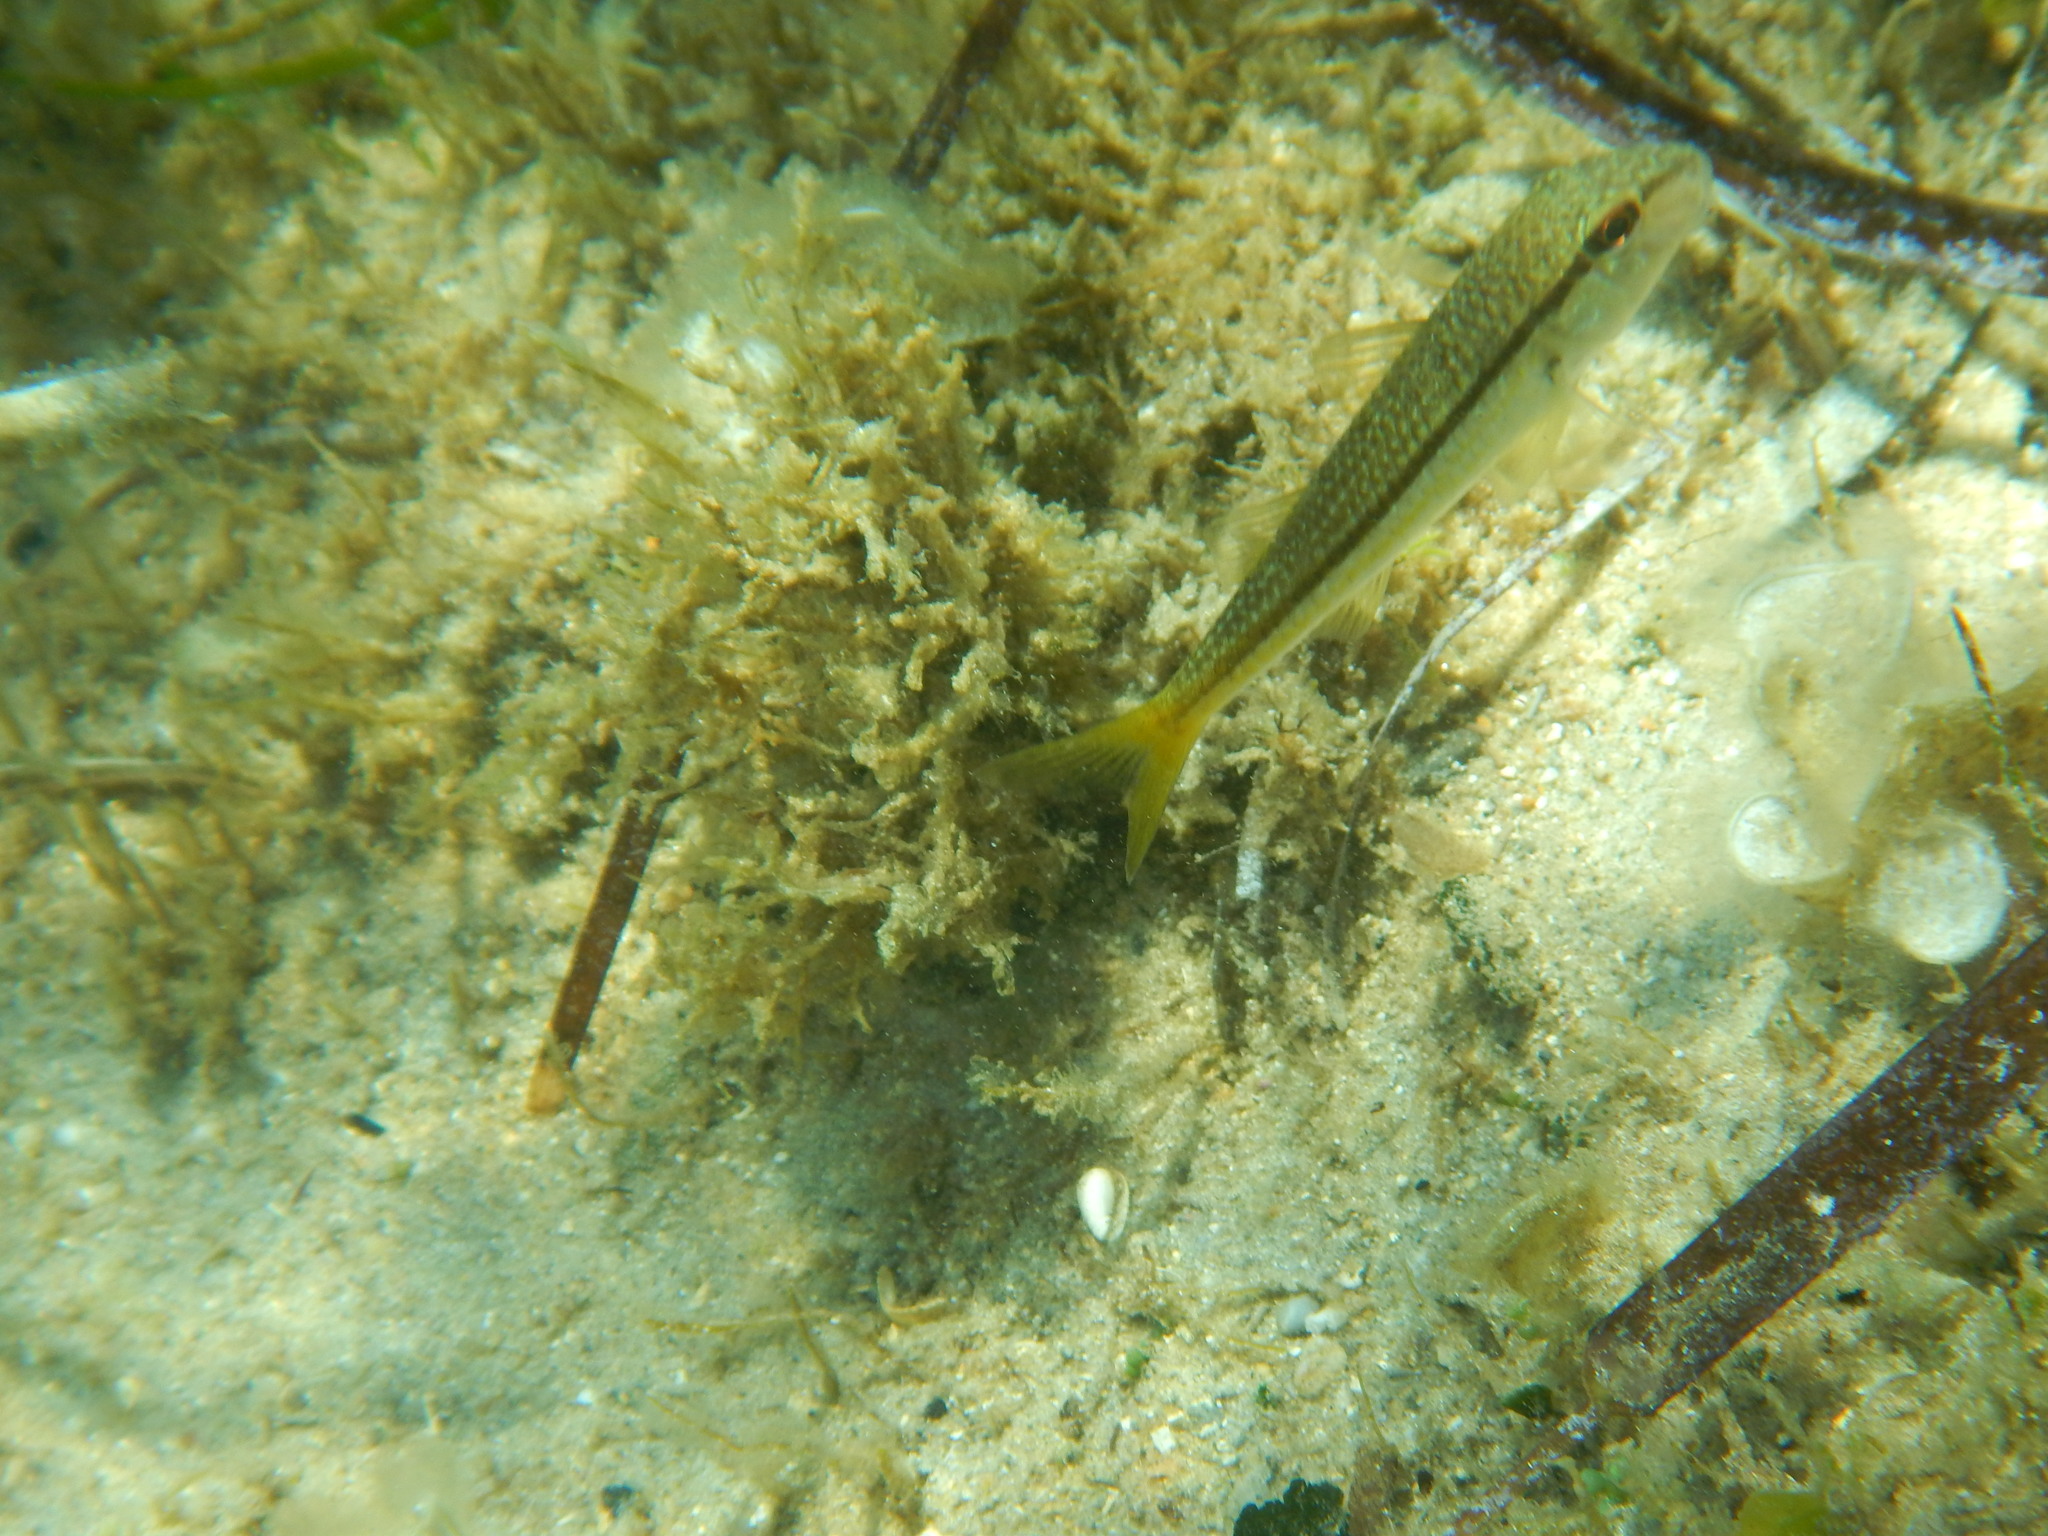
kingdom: Animalia
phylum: Chordata
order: Perciformes
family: Mullidae
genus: Mullus
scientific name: Mullus barbatus
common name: Blunt-snouted mullet
